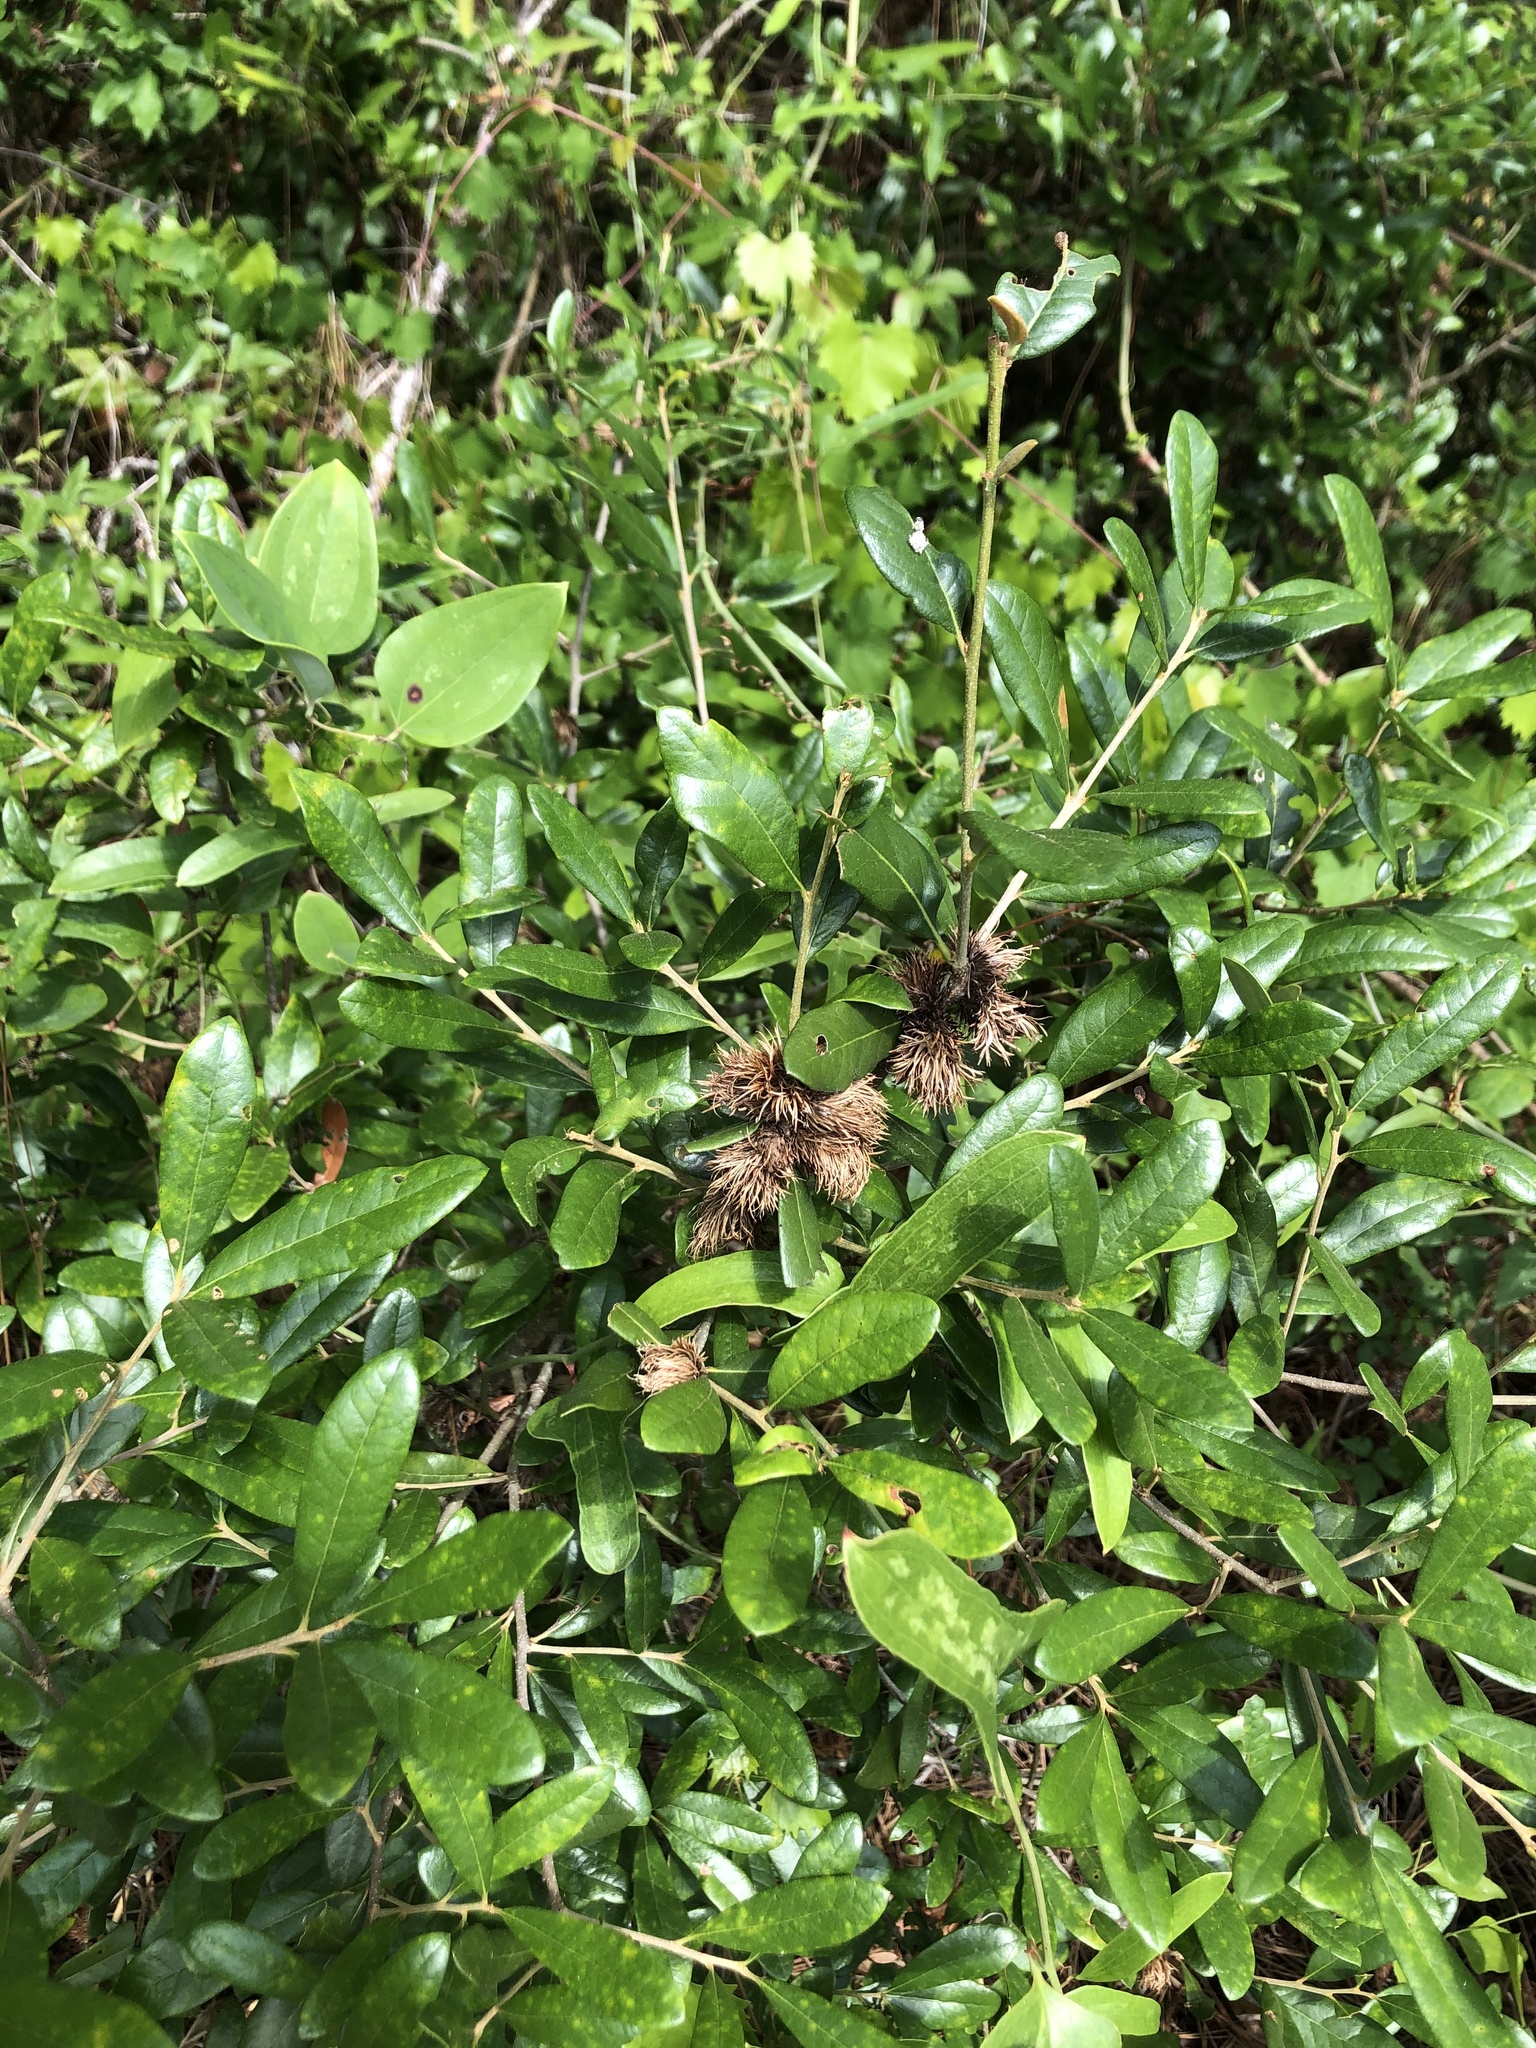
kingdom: Plantae
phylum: Tracheophyta
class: Magnoliopsida
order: Fagales
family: Fagaceae
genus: Quercus
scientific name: Quercus virginiana
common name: Southern live oak
